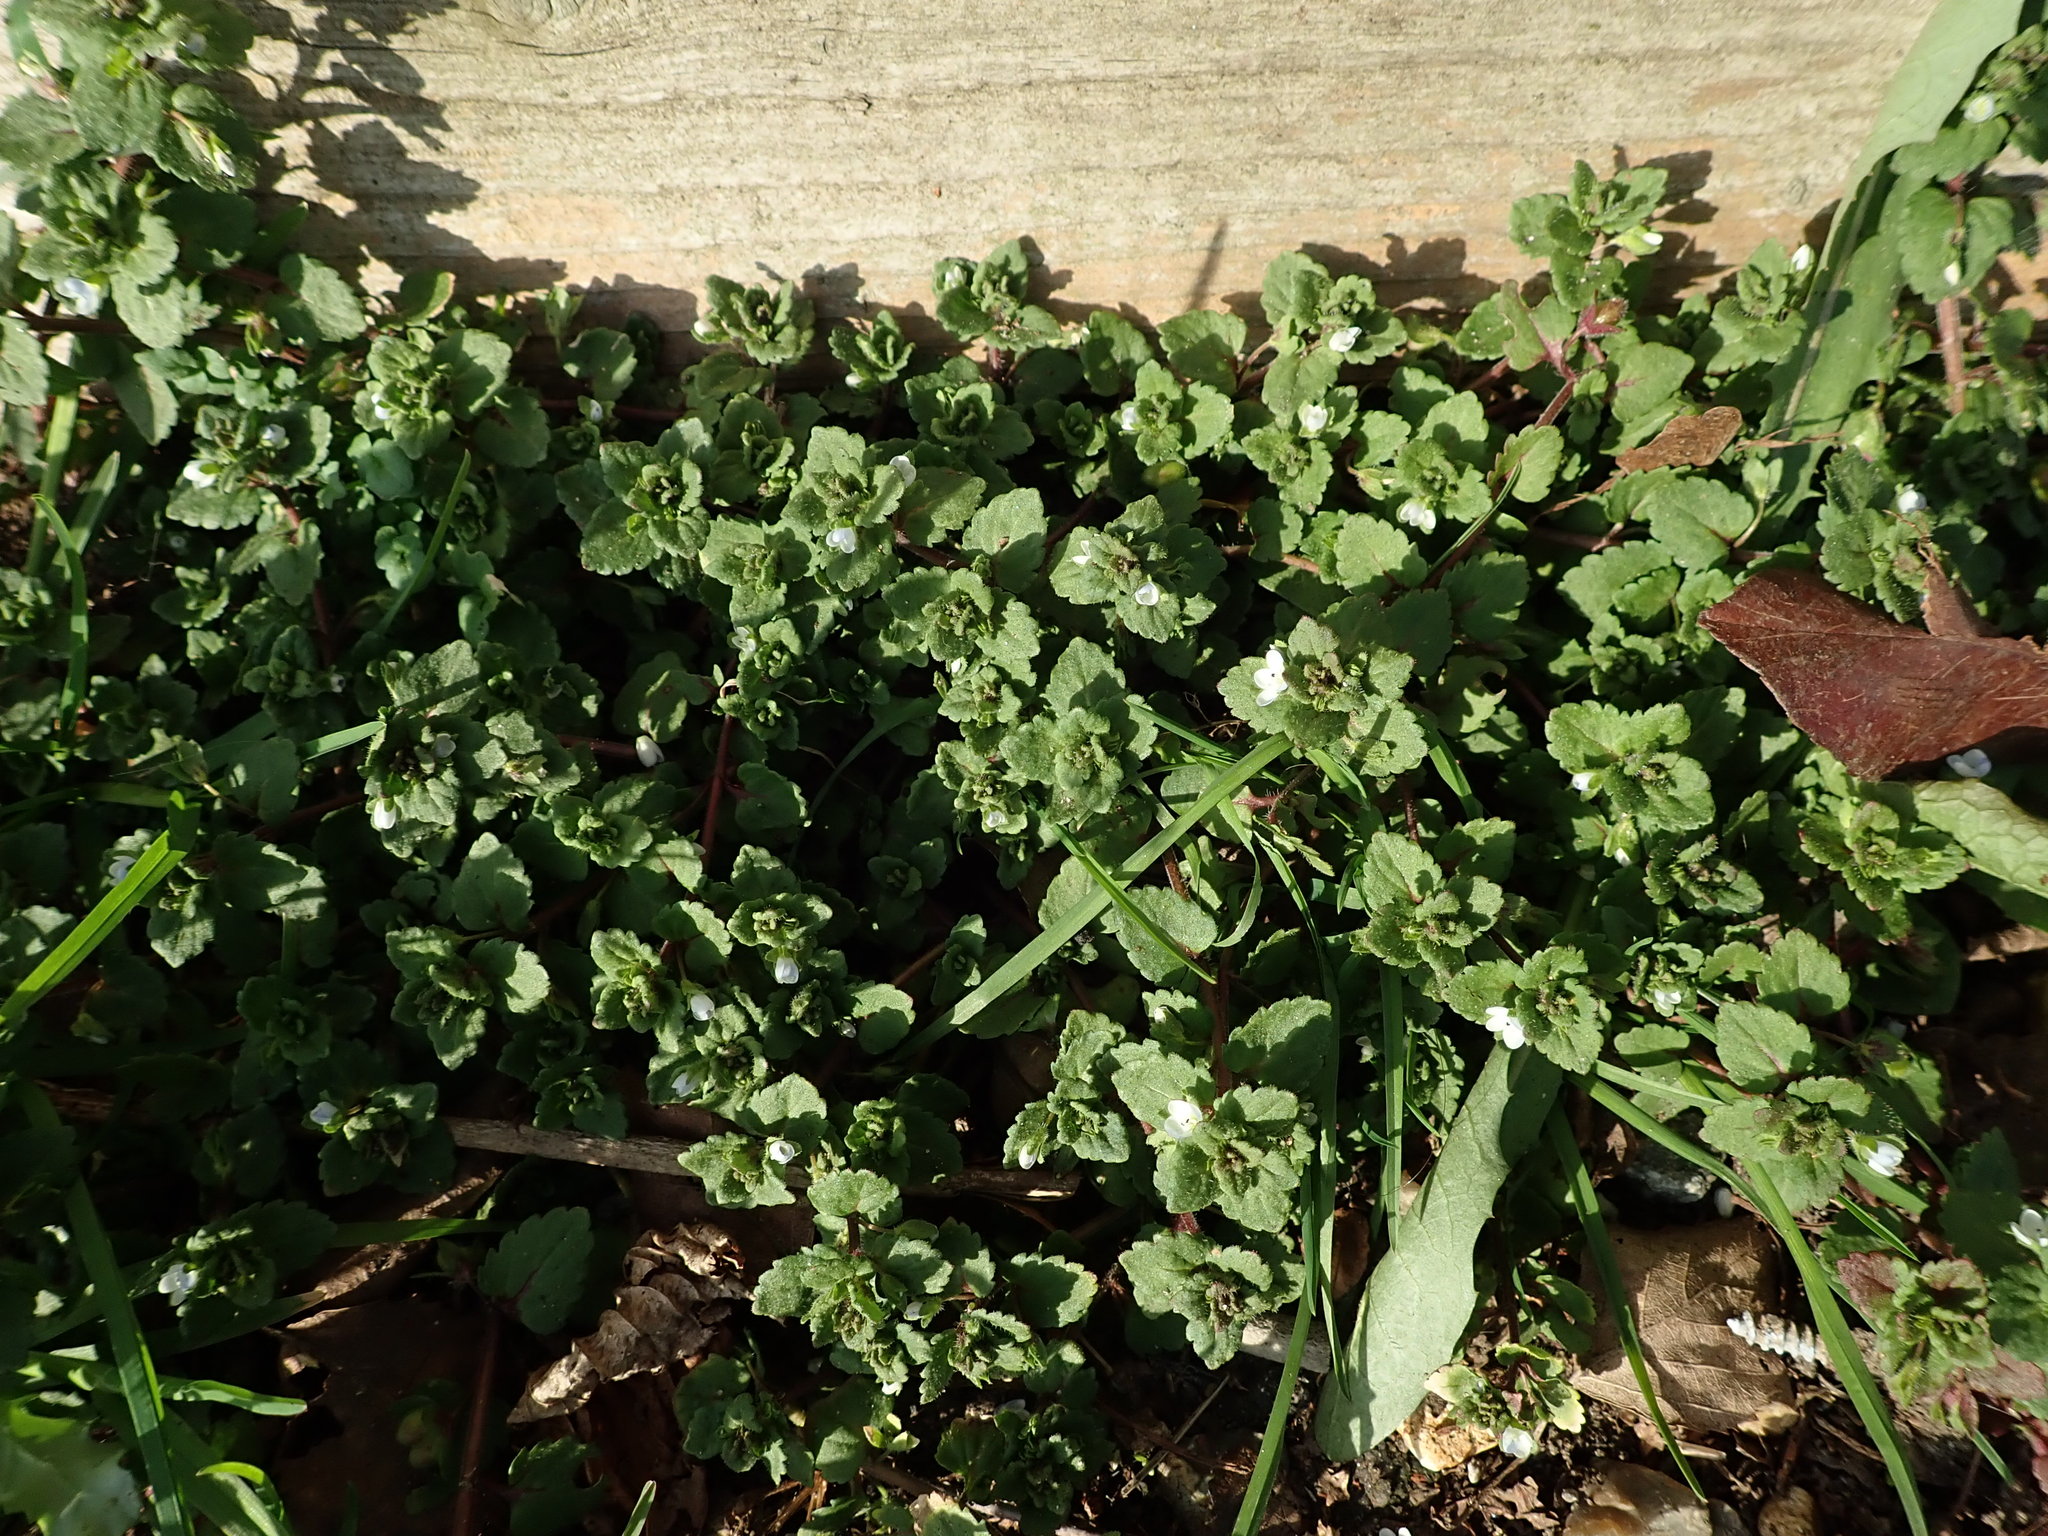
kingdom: Plantae
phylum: Tracheophyta
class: Magnoliopsida
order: Lamiales
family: Plantaginaceae
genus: Veronica
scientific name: Veronica agrestis
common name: Green field-speedwell
